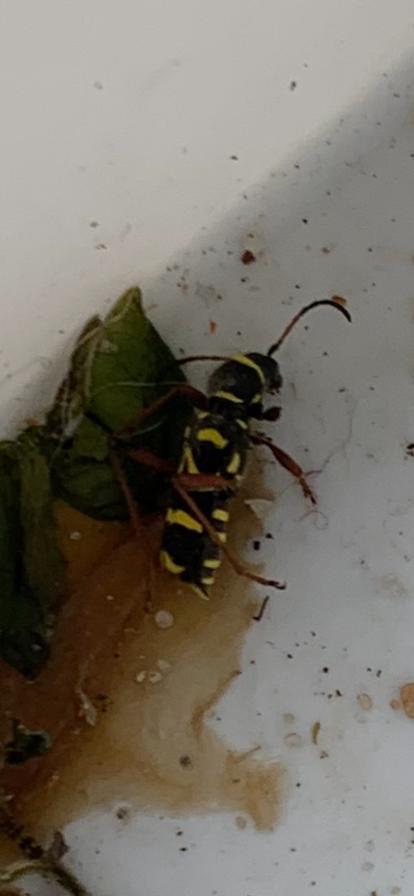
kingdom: Animalia
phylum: Arthropoda
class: Insecta
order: Coleoptera
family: Cerambycidae
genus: Clytus
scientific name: Clytus arietis
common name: Wasp beetle
